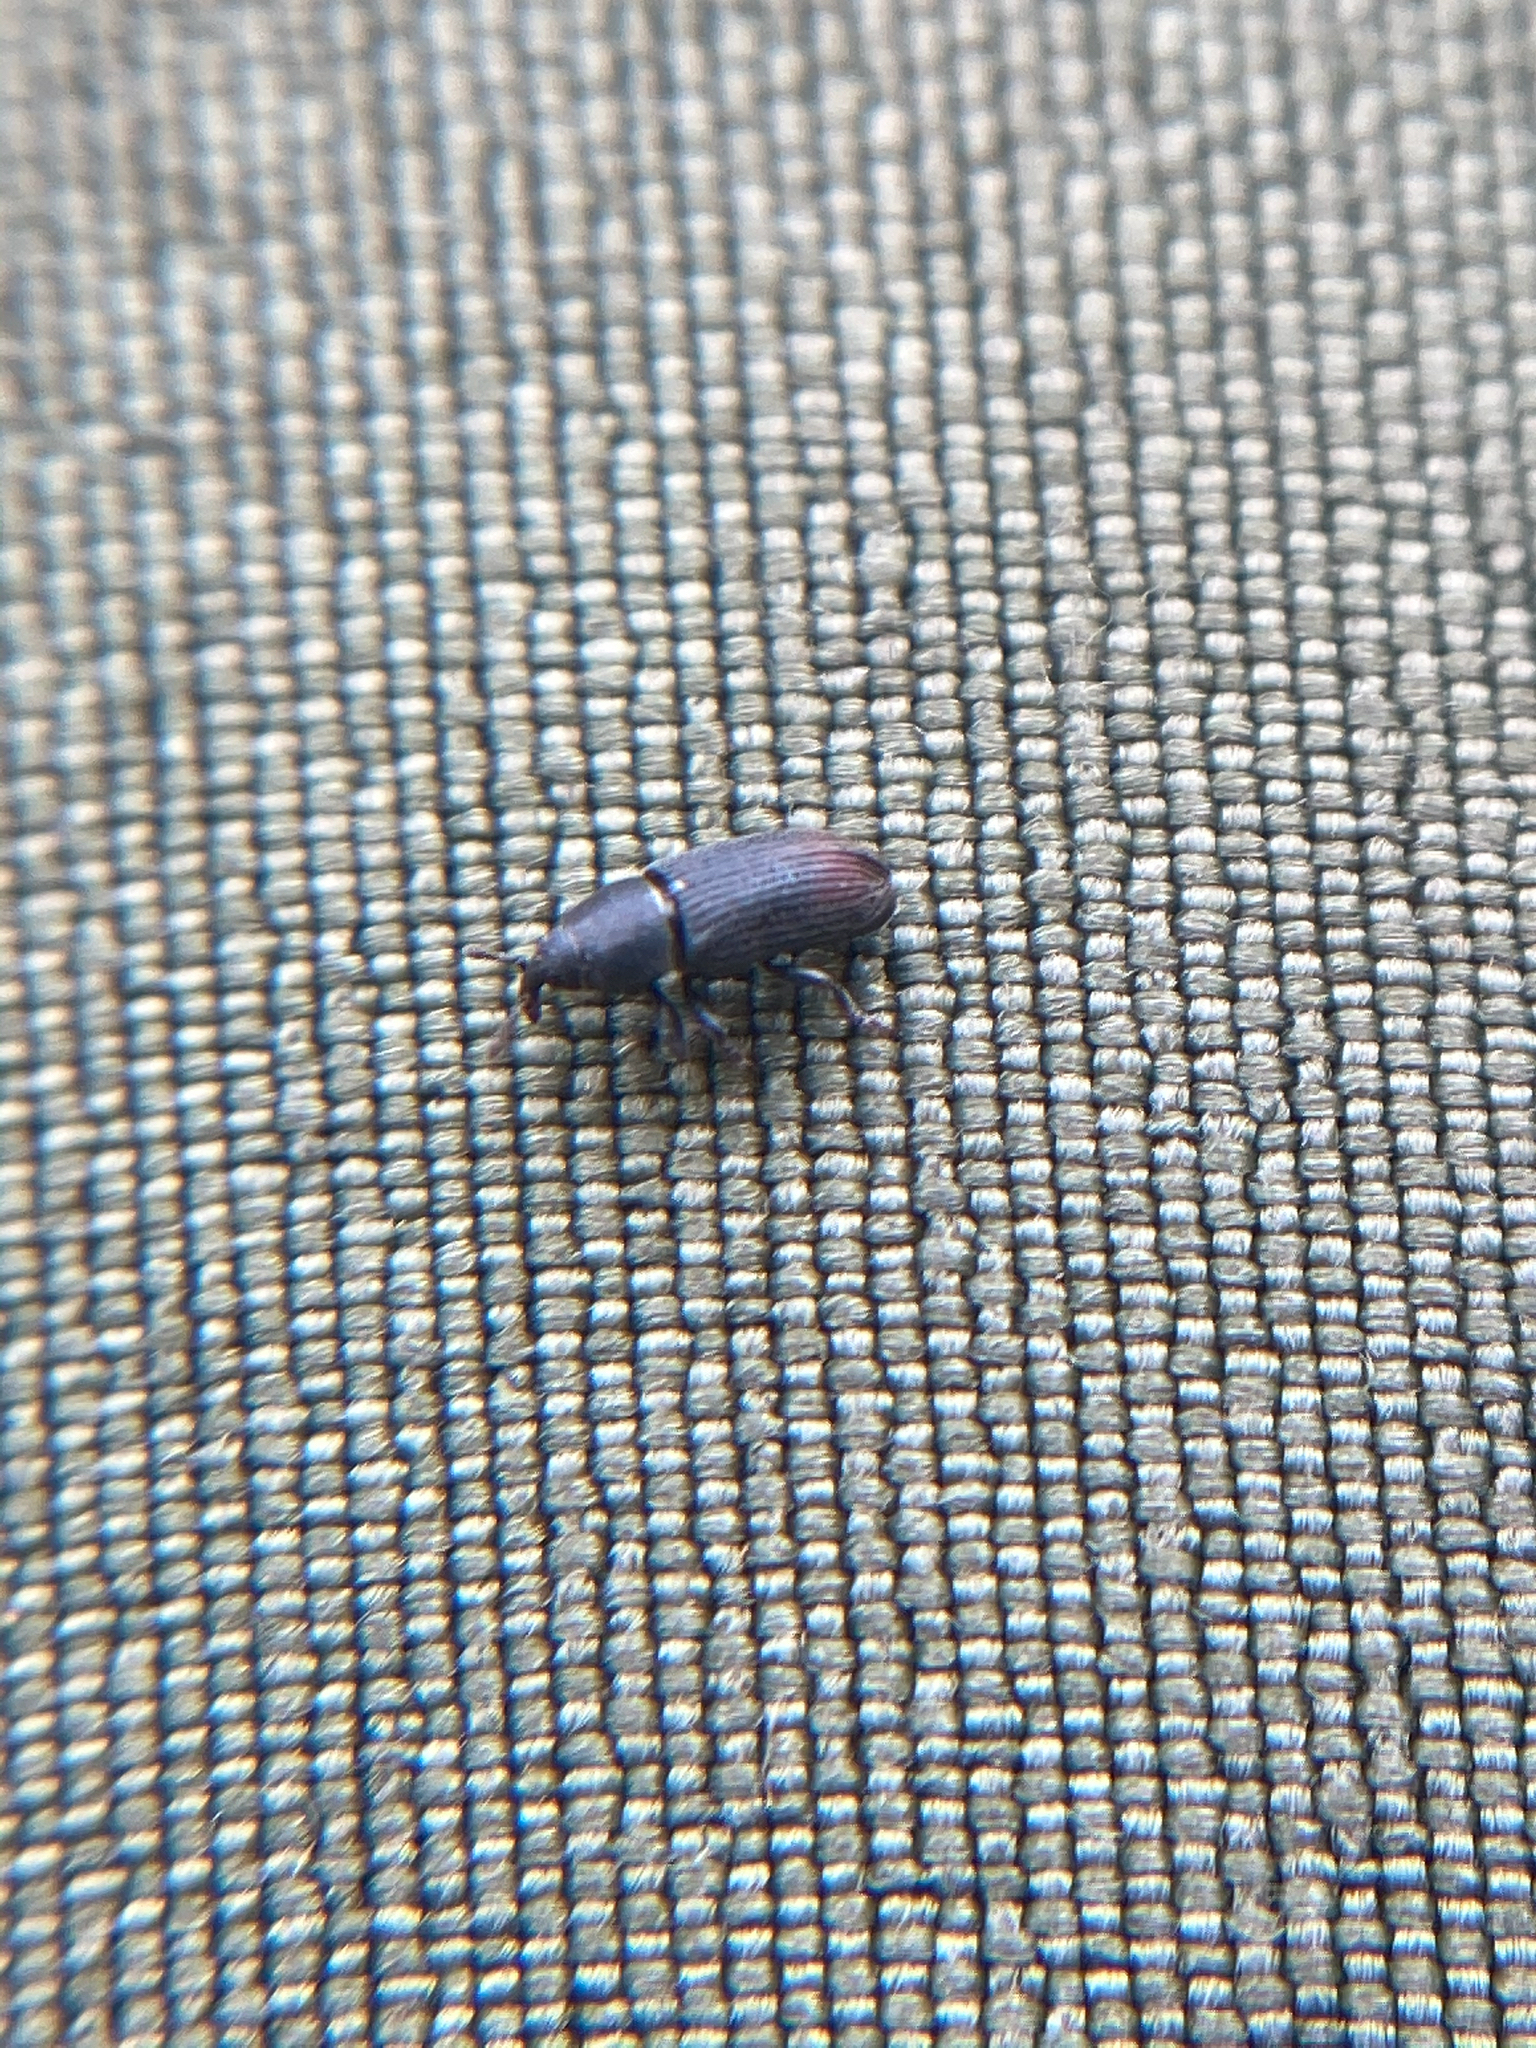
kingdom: Animalia
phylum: Arthropoda
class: Insecta
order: Coleoptera
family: Curculionidae
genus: Mecinus
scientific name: Mecinus pyraster
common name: Weevil
